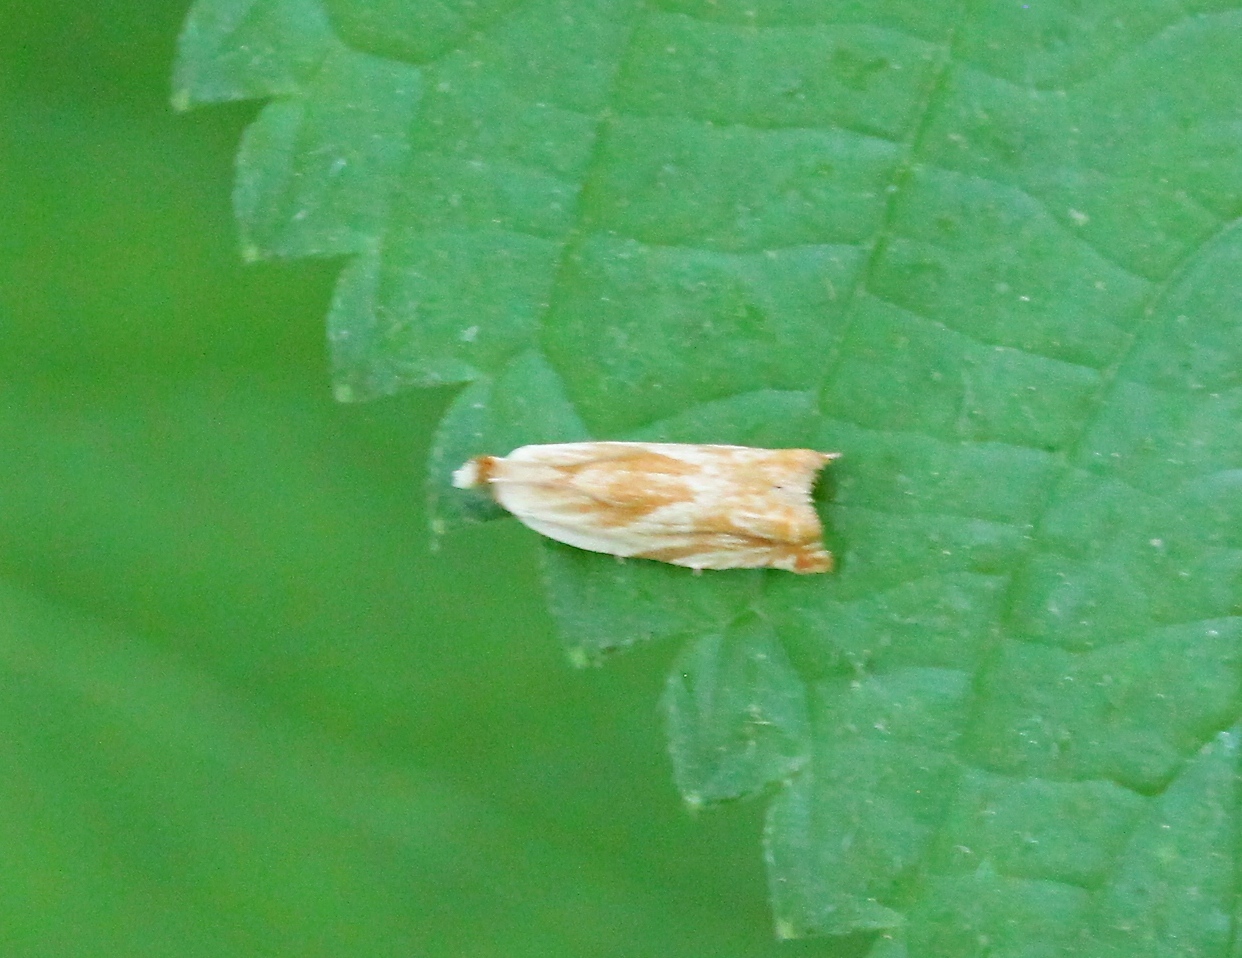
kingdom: Animalia
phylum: Arthropoda
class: Insecta
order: Lepidoptera
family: Tortricidae
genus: Ancylis
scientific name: Ancylis platanana
